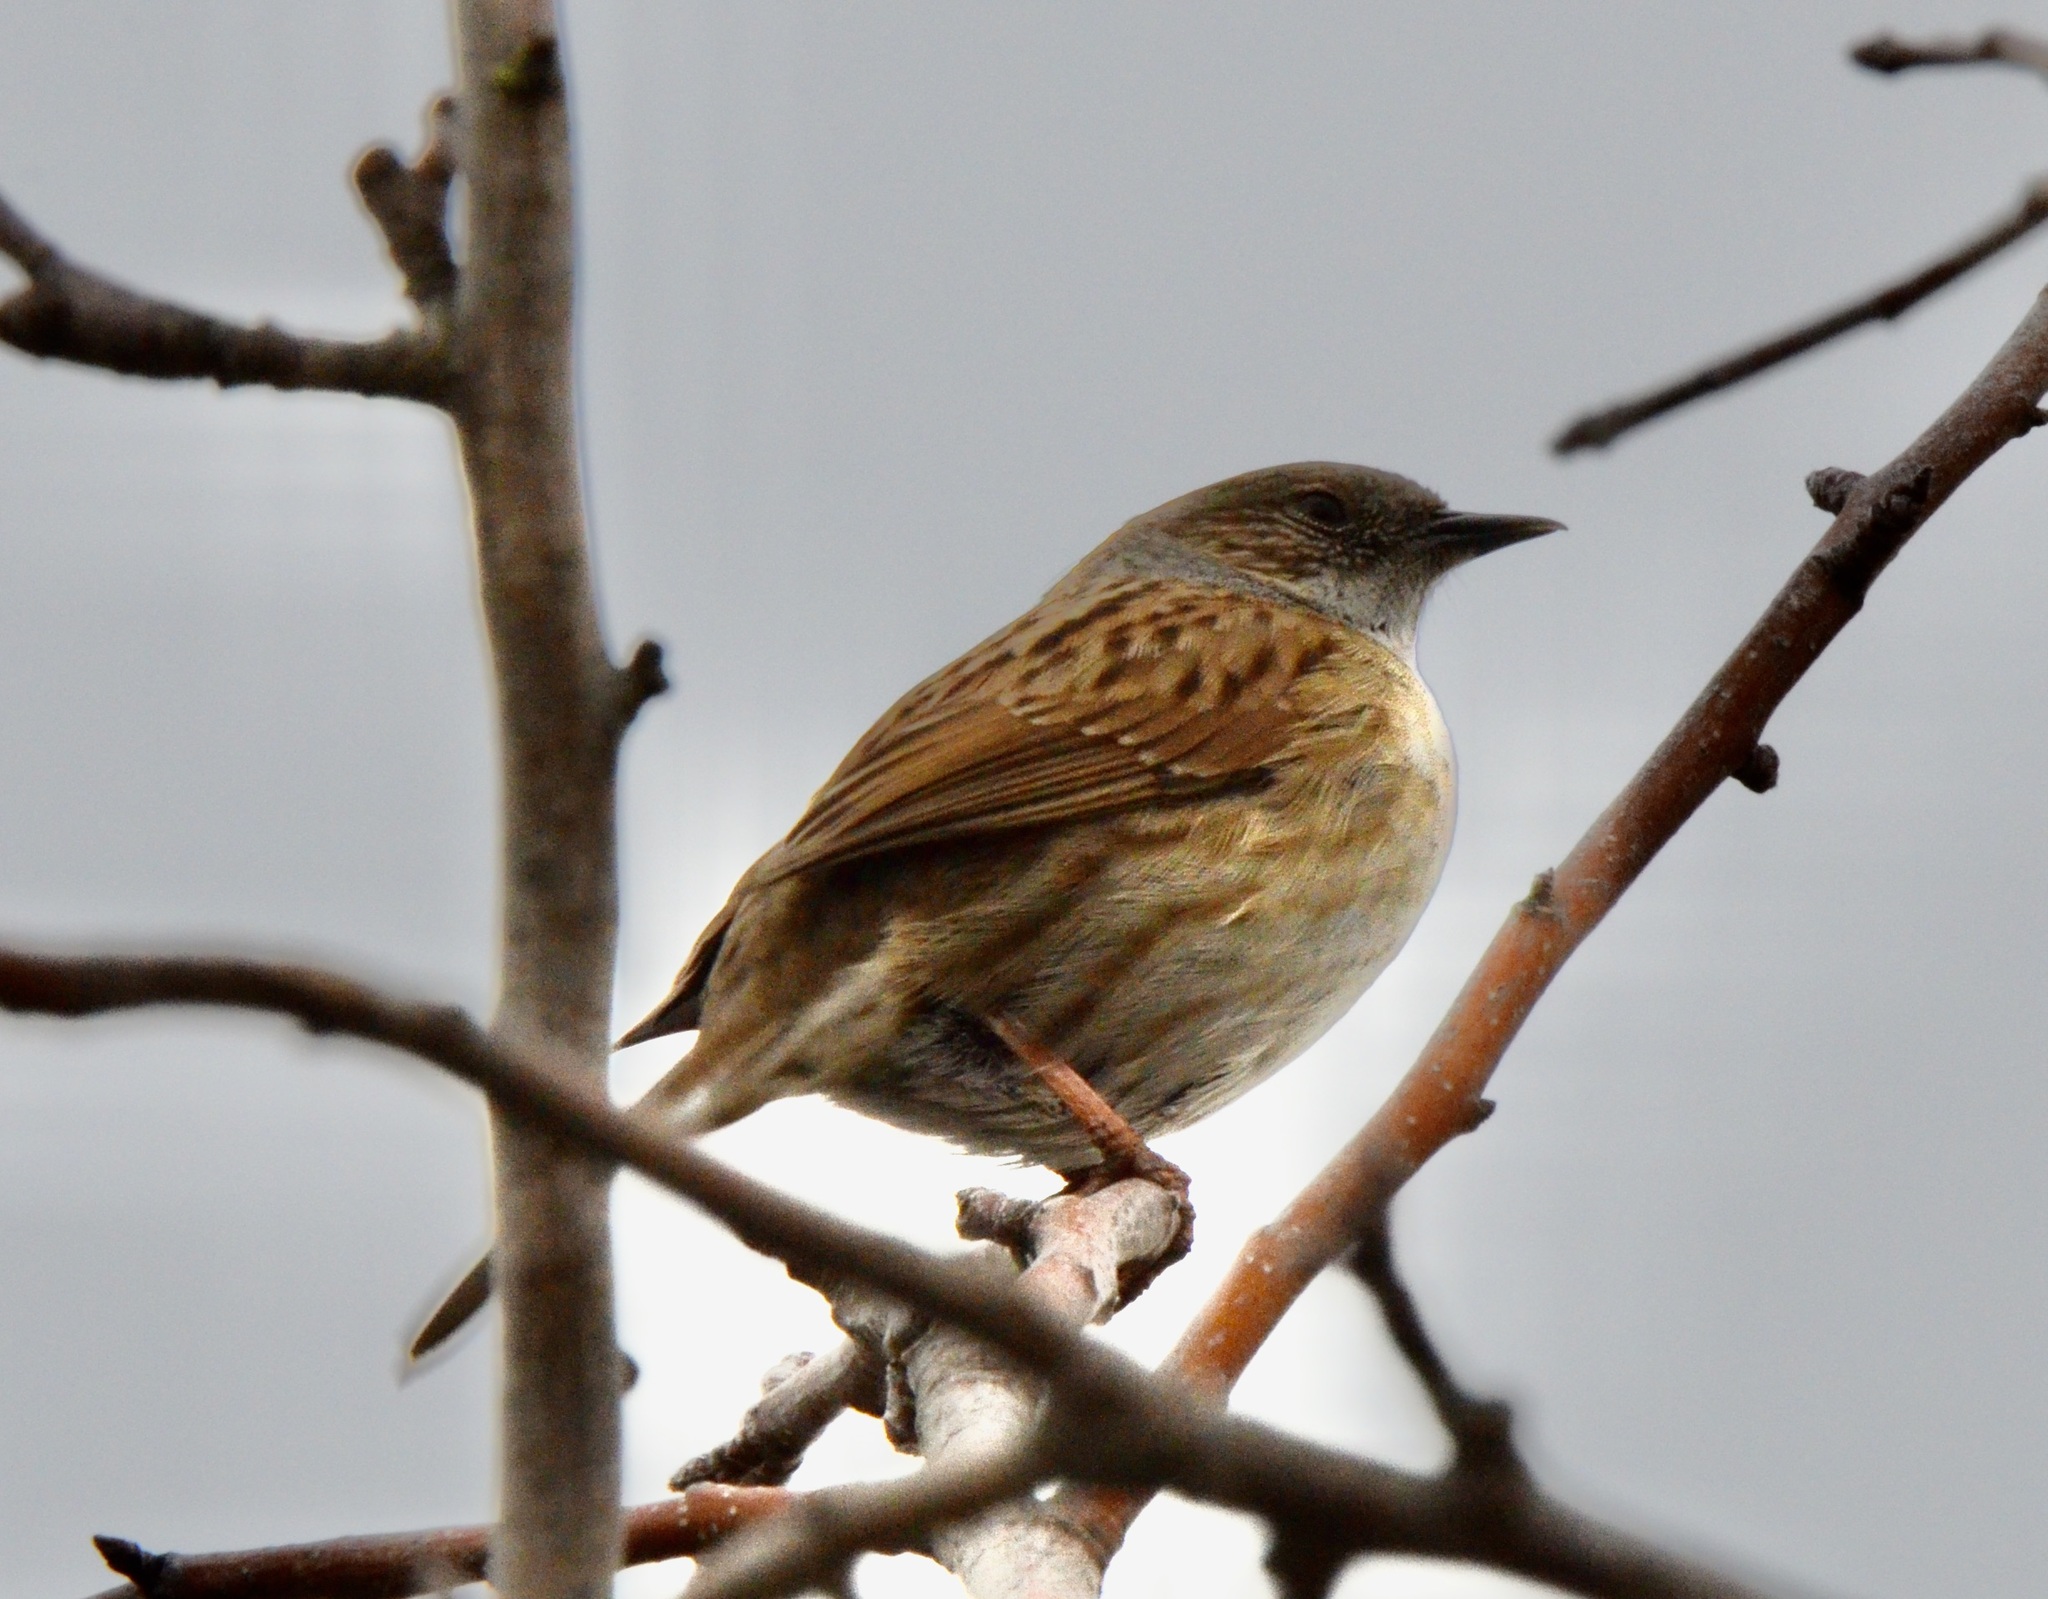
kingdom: Animalia
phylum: Chordata
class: Aves
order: Passeriformes
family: Prunellidae
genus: Prunella
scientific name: Prunella modularis
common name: Dunnock
